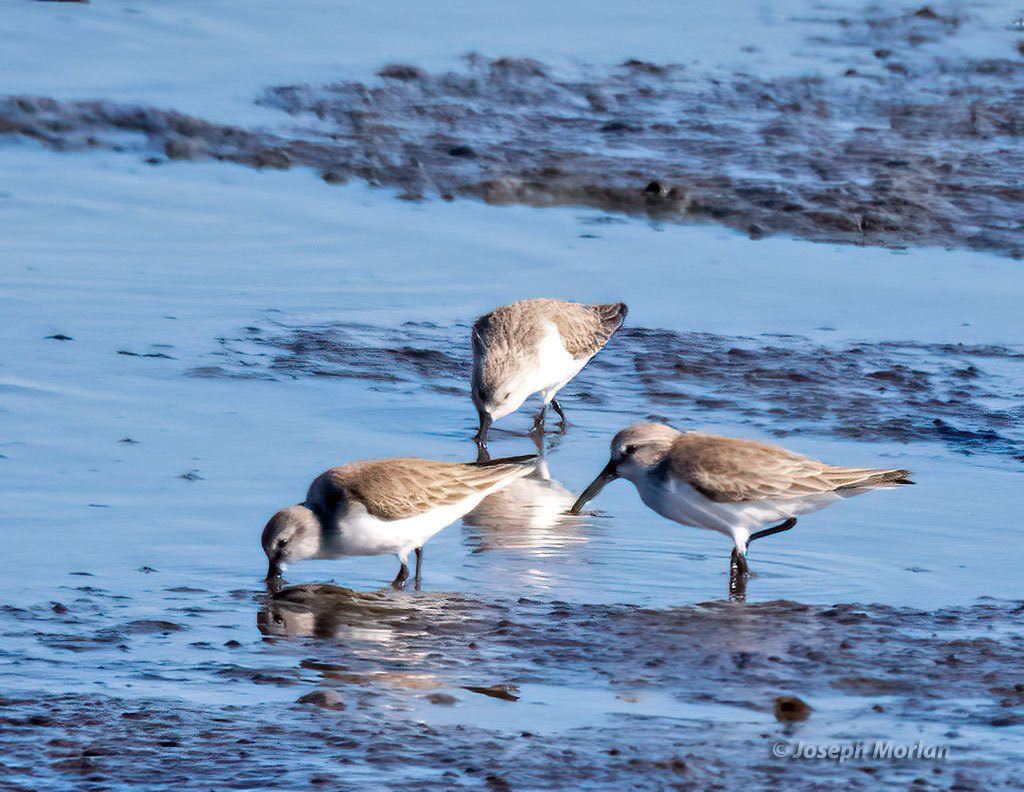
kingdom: Animalia
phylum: Chordata
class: Aves
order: Charadriiformes
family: Scolopacidae
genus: Calidris
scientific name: Calidris mauri
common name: Western sandpiper
